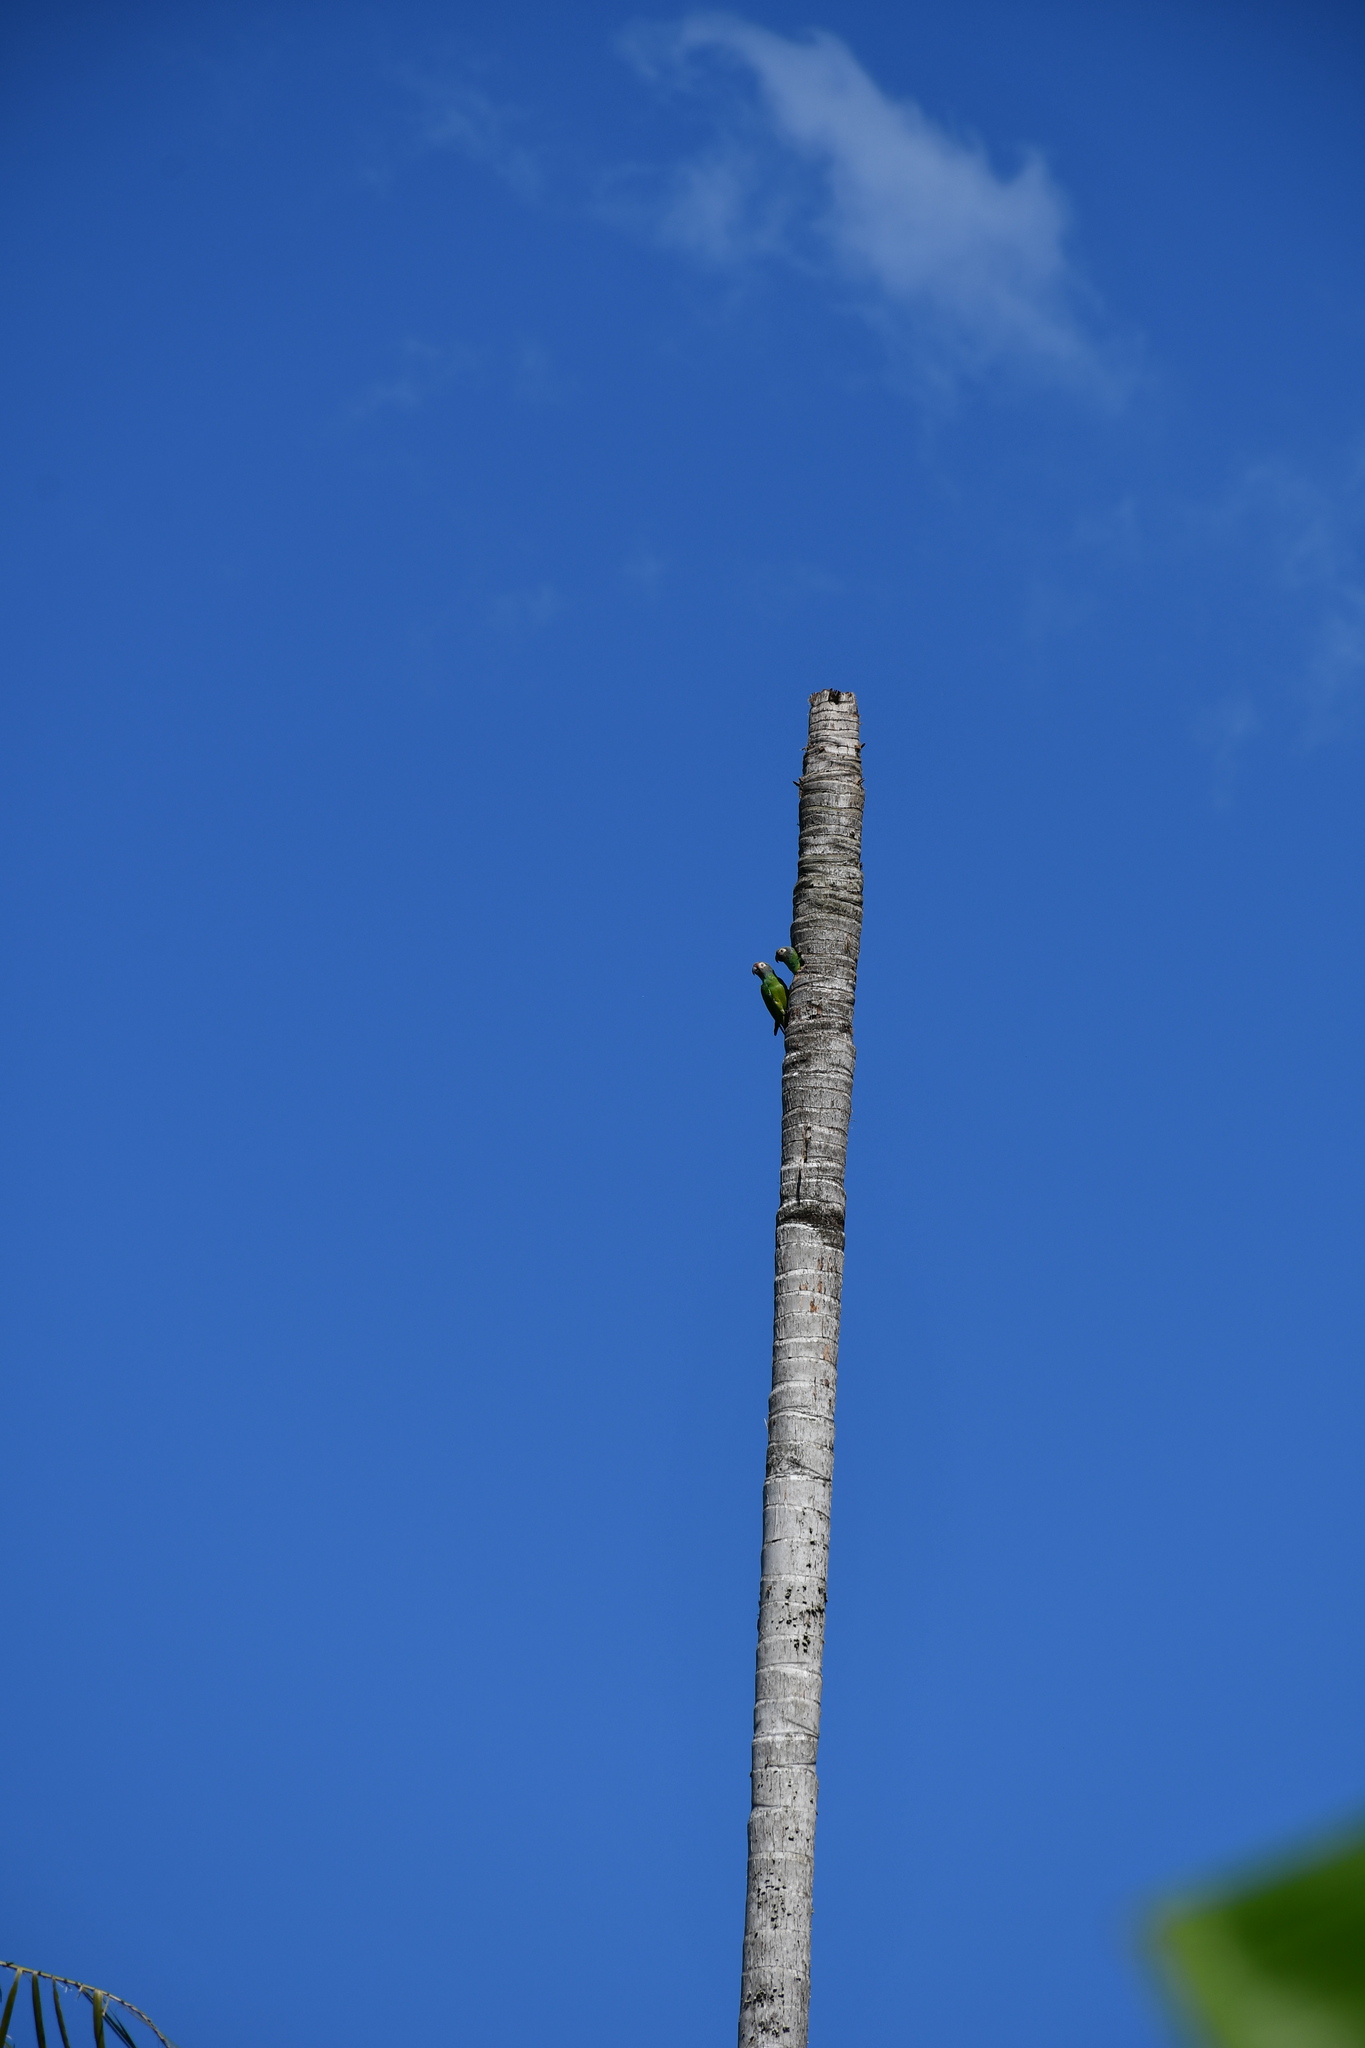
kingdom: Animalia
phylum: Chordata
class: Aves
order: Psittaciformes
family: Psittacidae
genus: Aratinga
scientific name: Aratinga weddellii
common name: Dusky-headed parakeet
